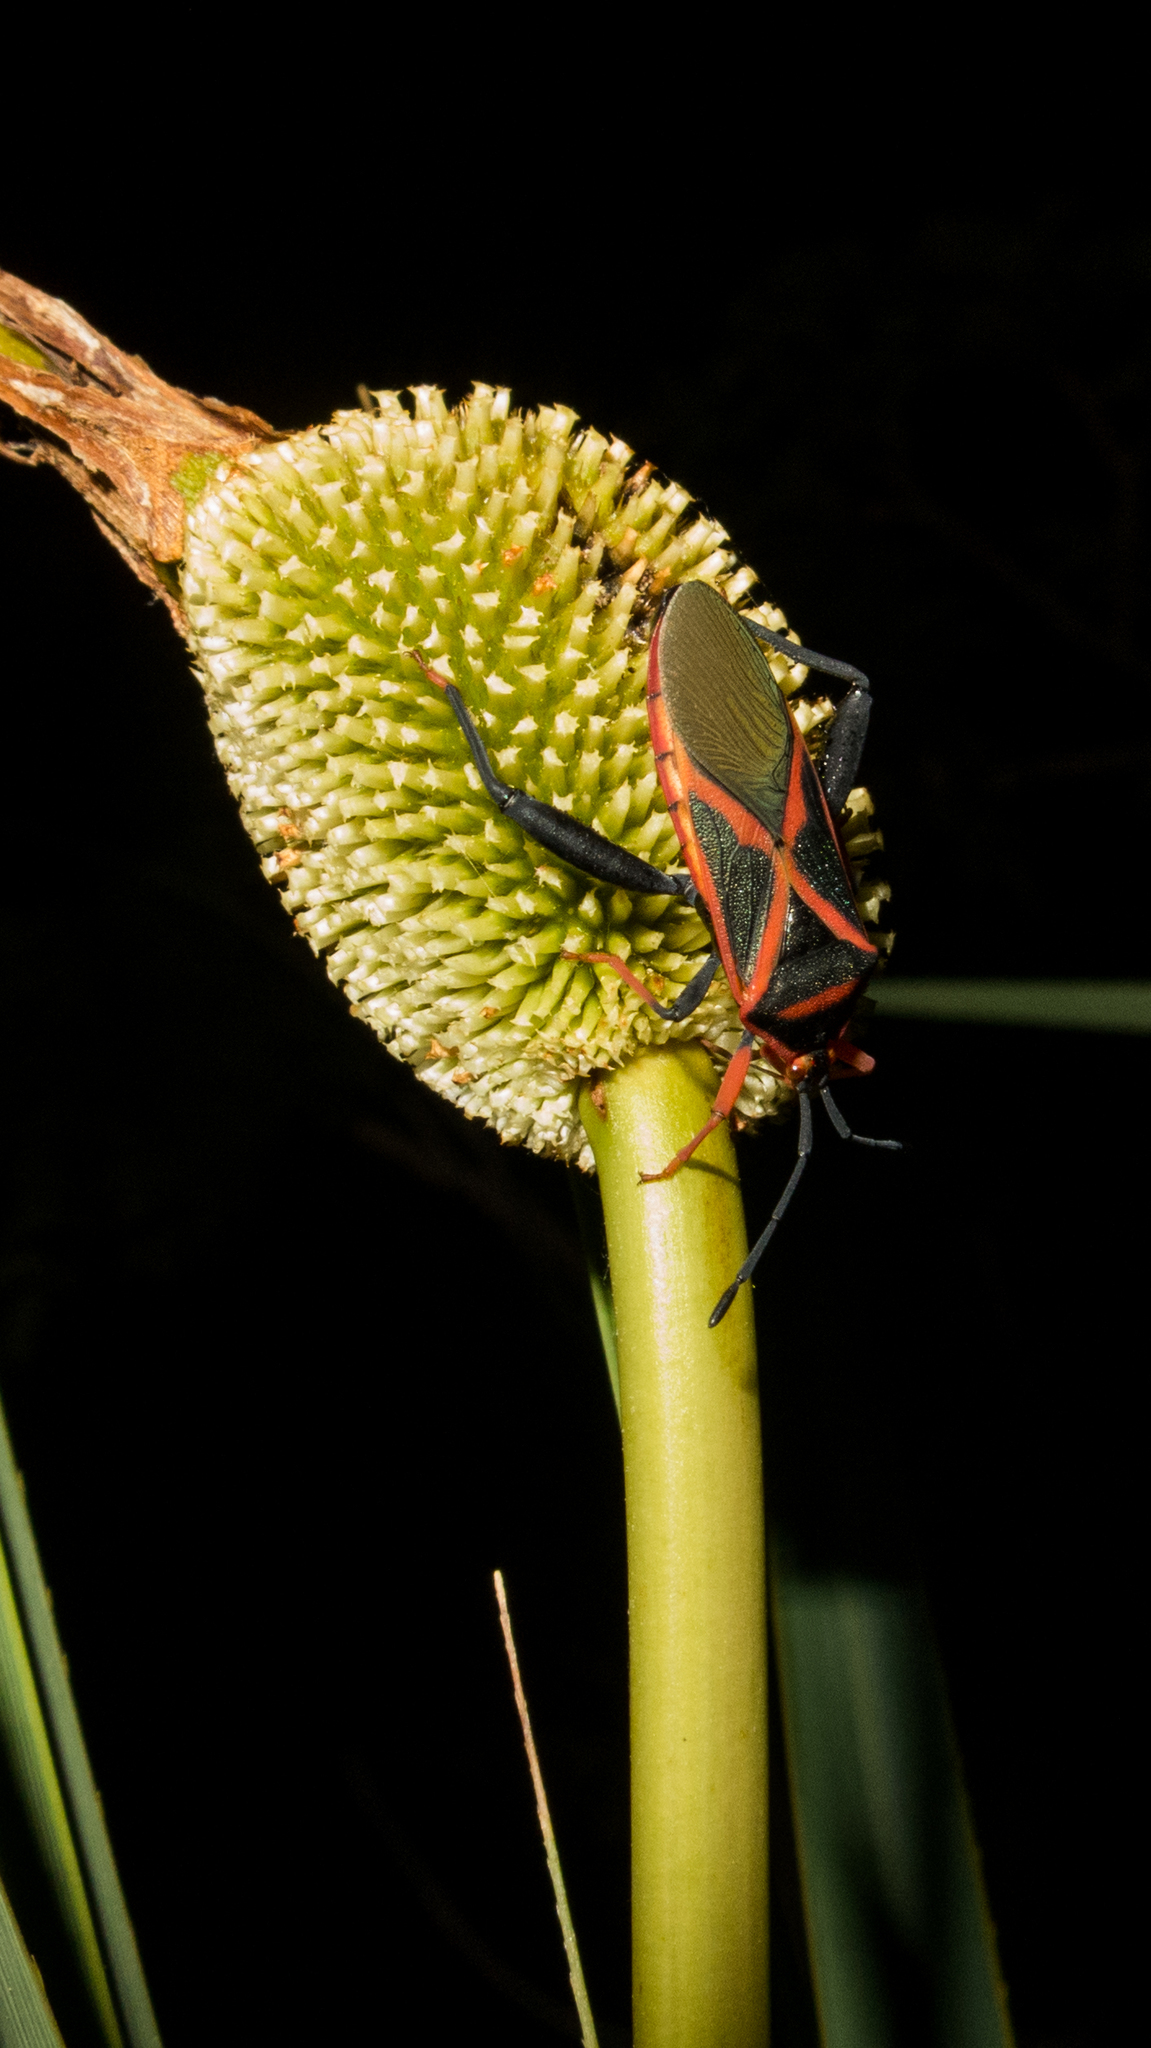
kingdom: Animalia
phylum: Arthropoda
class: Insecta
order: Hemiptera
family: Coreidae
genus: Athaumastus
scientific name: Athaumastus rubroornatus
